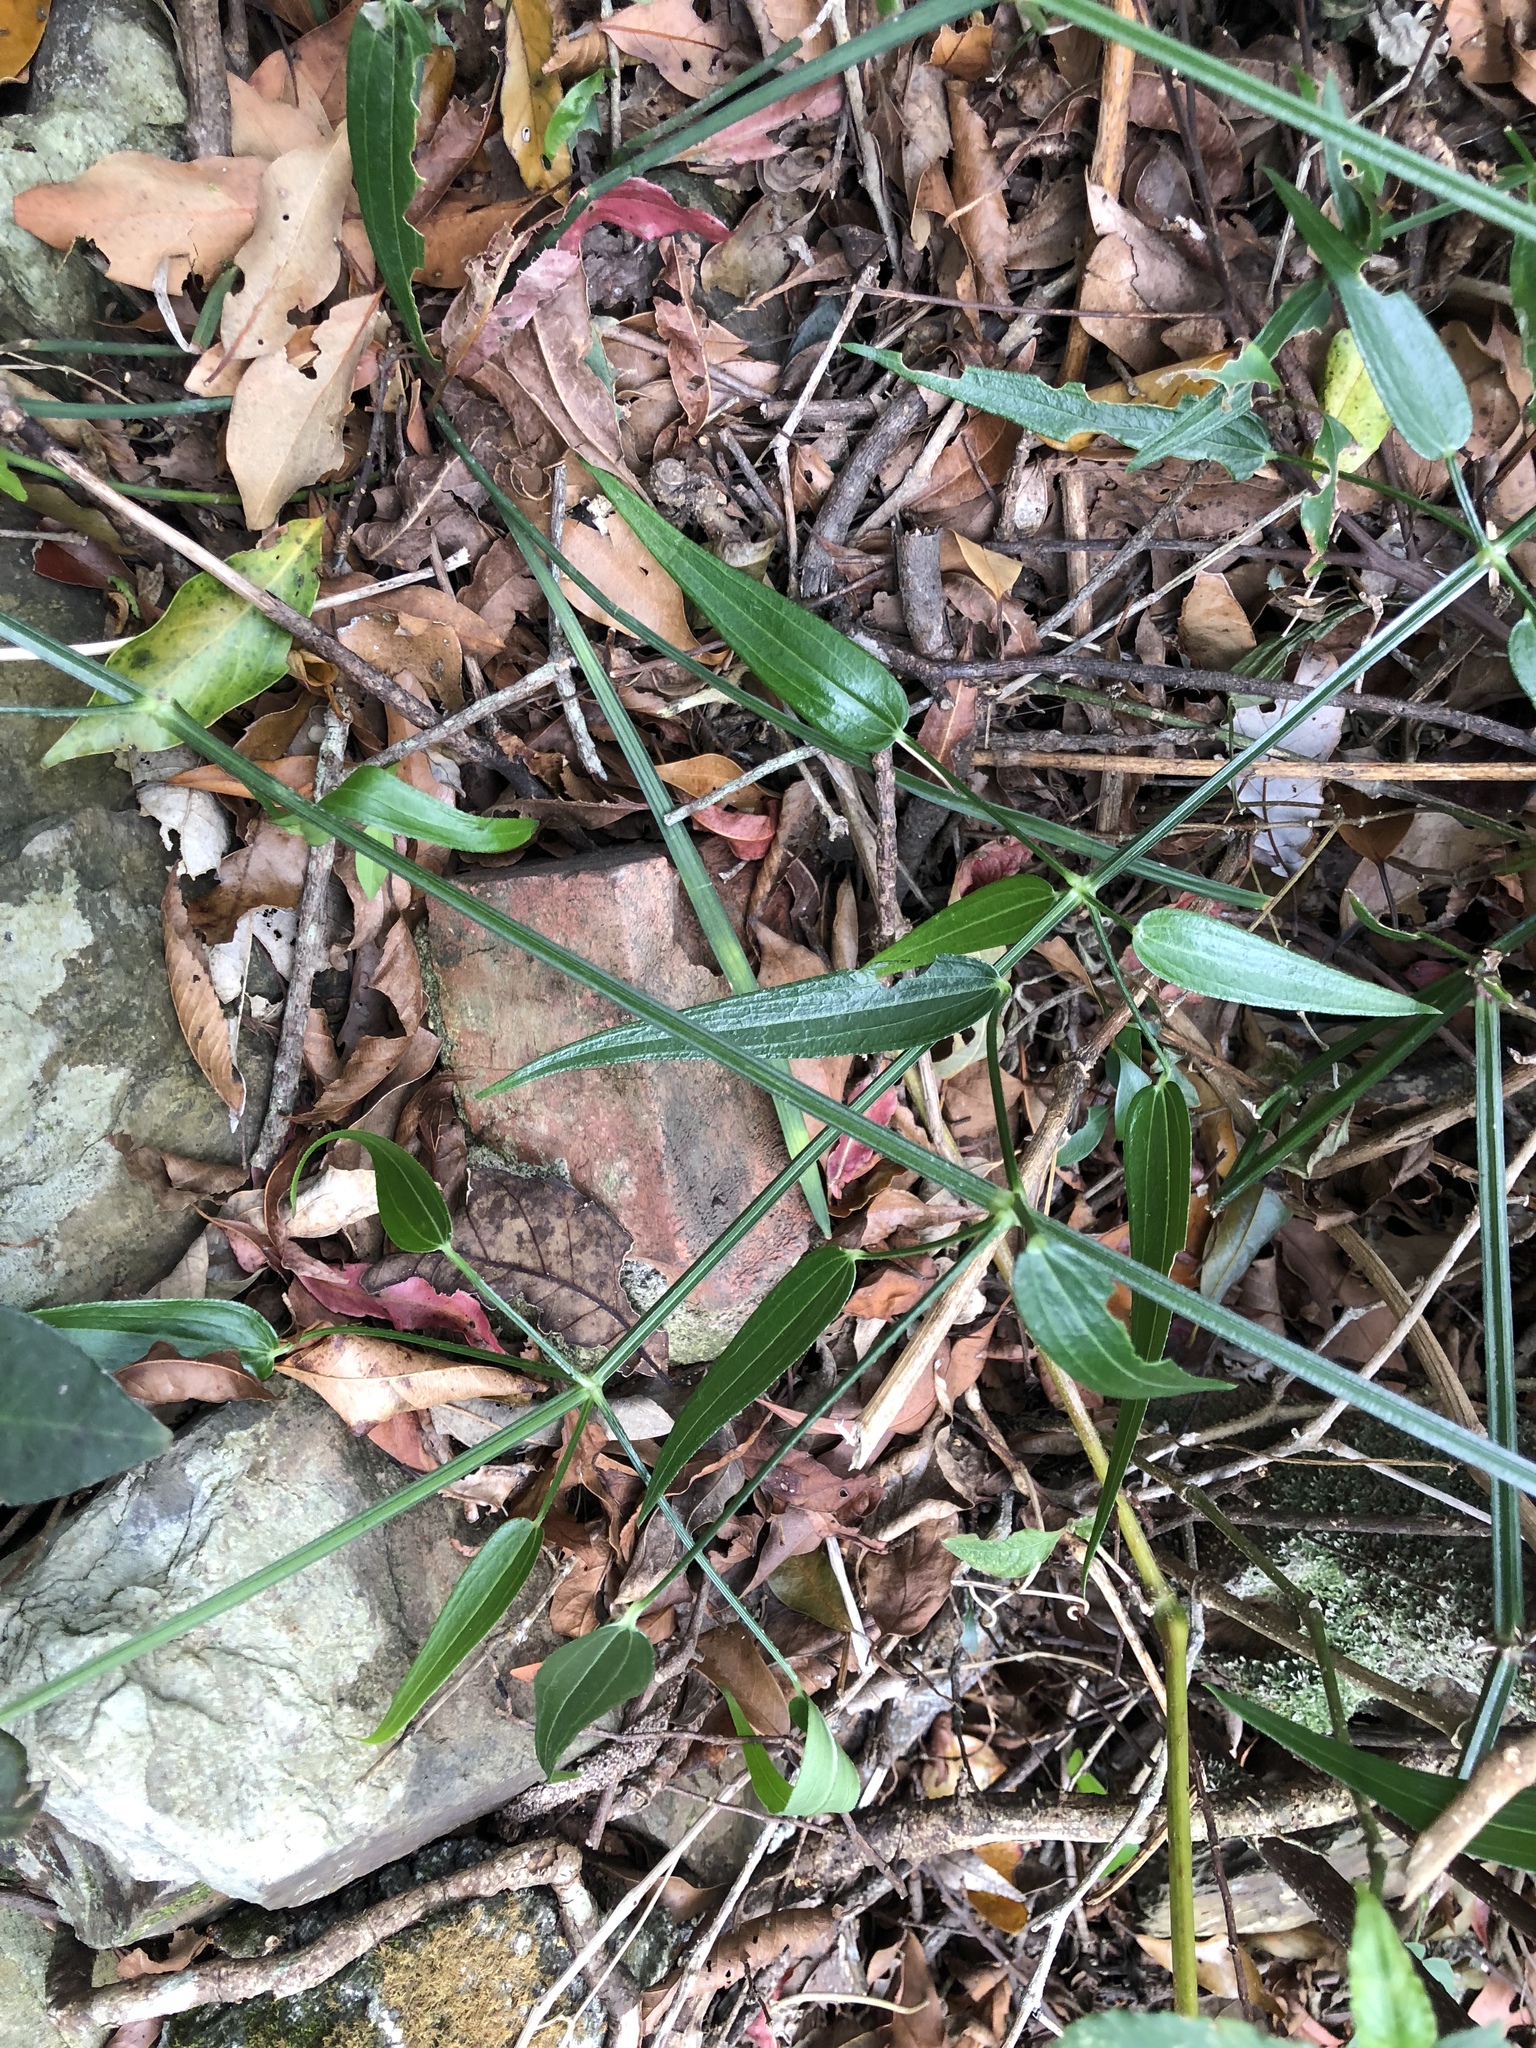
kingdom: Plantae
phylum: Tracheophyta
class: Magnoliopsida
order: Gentianales
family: Rubiaceae
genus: Rubia
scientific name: Rubia alata
